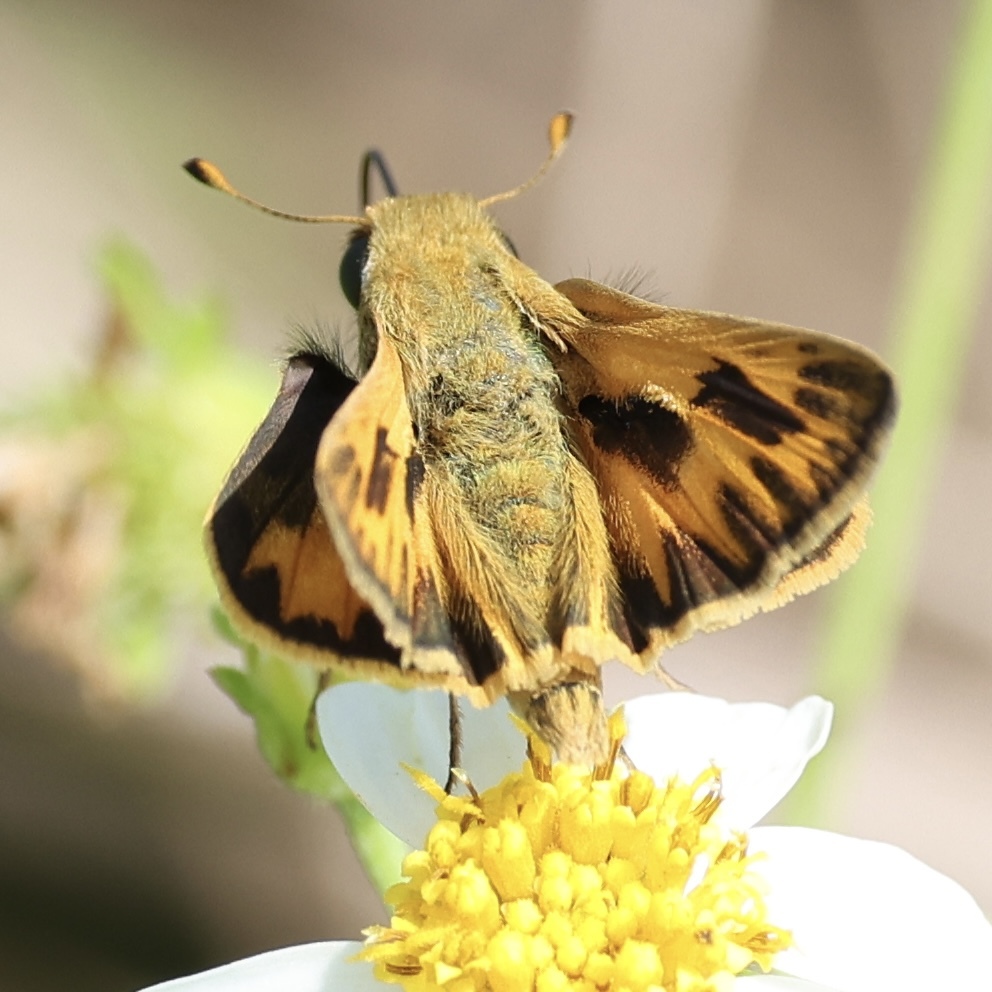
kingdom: Animalia
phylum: Arthropoda
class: Insecta
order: Lepidoptera
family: Hesperiidae
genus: Hylephila
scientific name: Hylephila phyleus
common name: Fiery skipper
